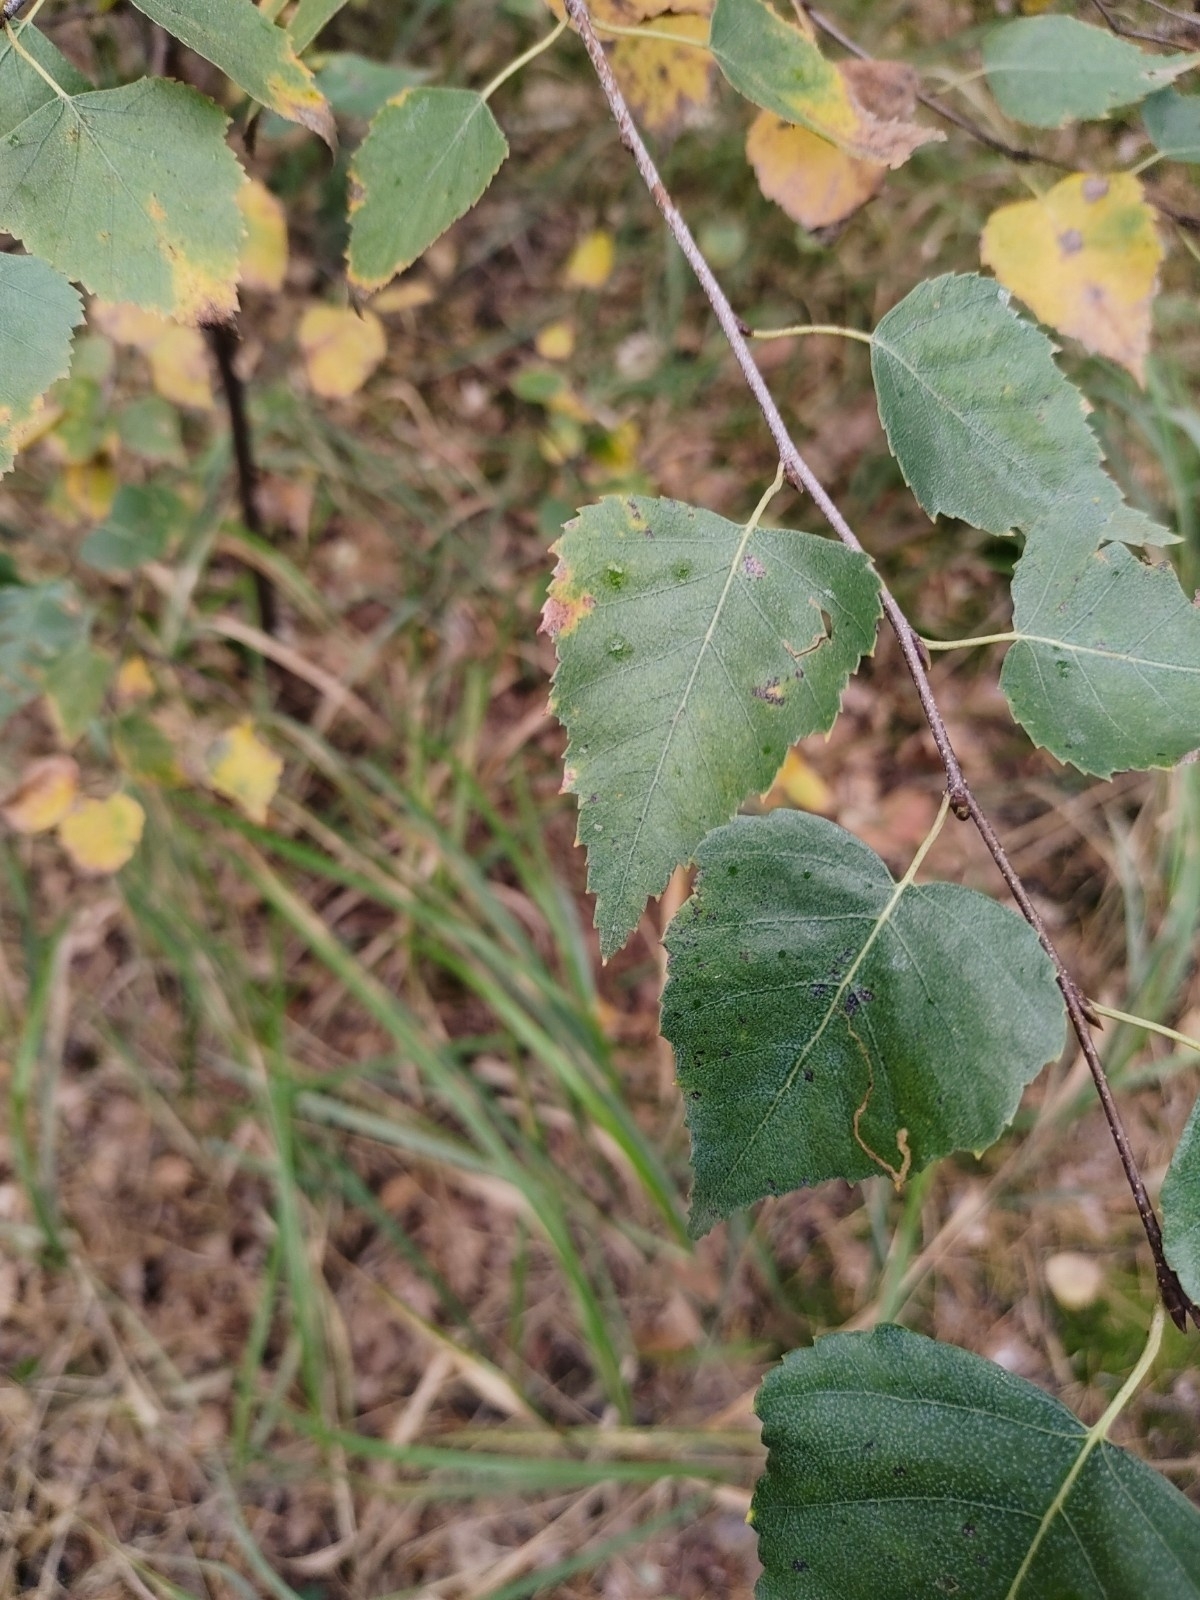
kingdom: Plantae
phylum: Tracheophyta
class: Magnoliopsida
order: Fagales
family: Betulaceae
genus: Betula
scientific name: Betula pendula
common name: Silver birch
